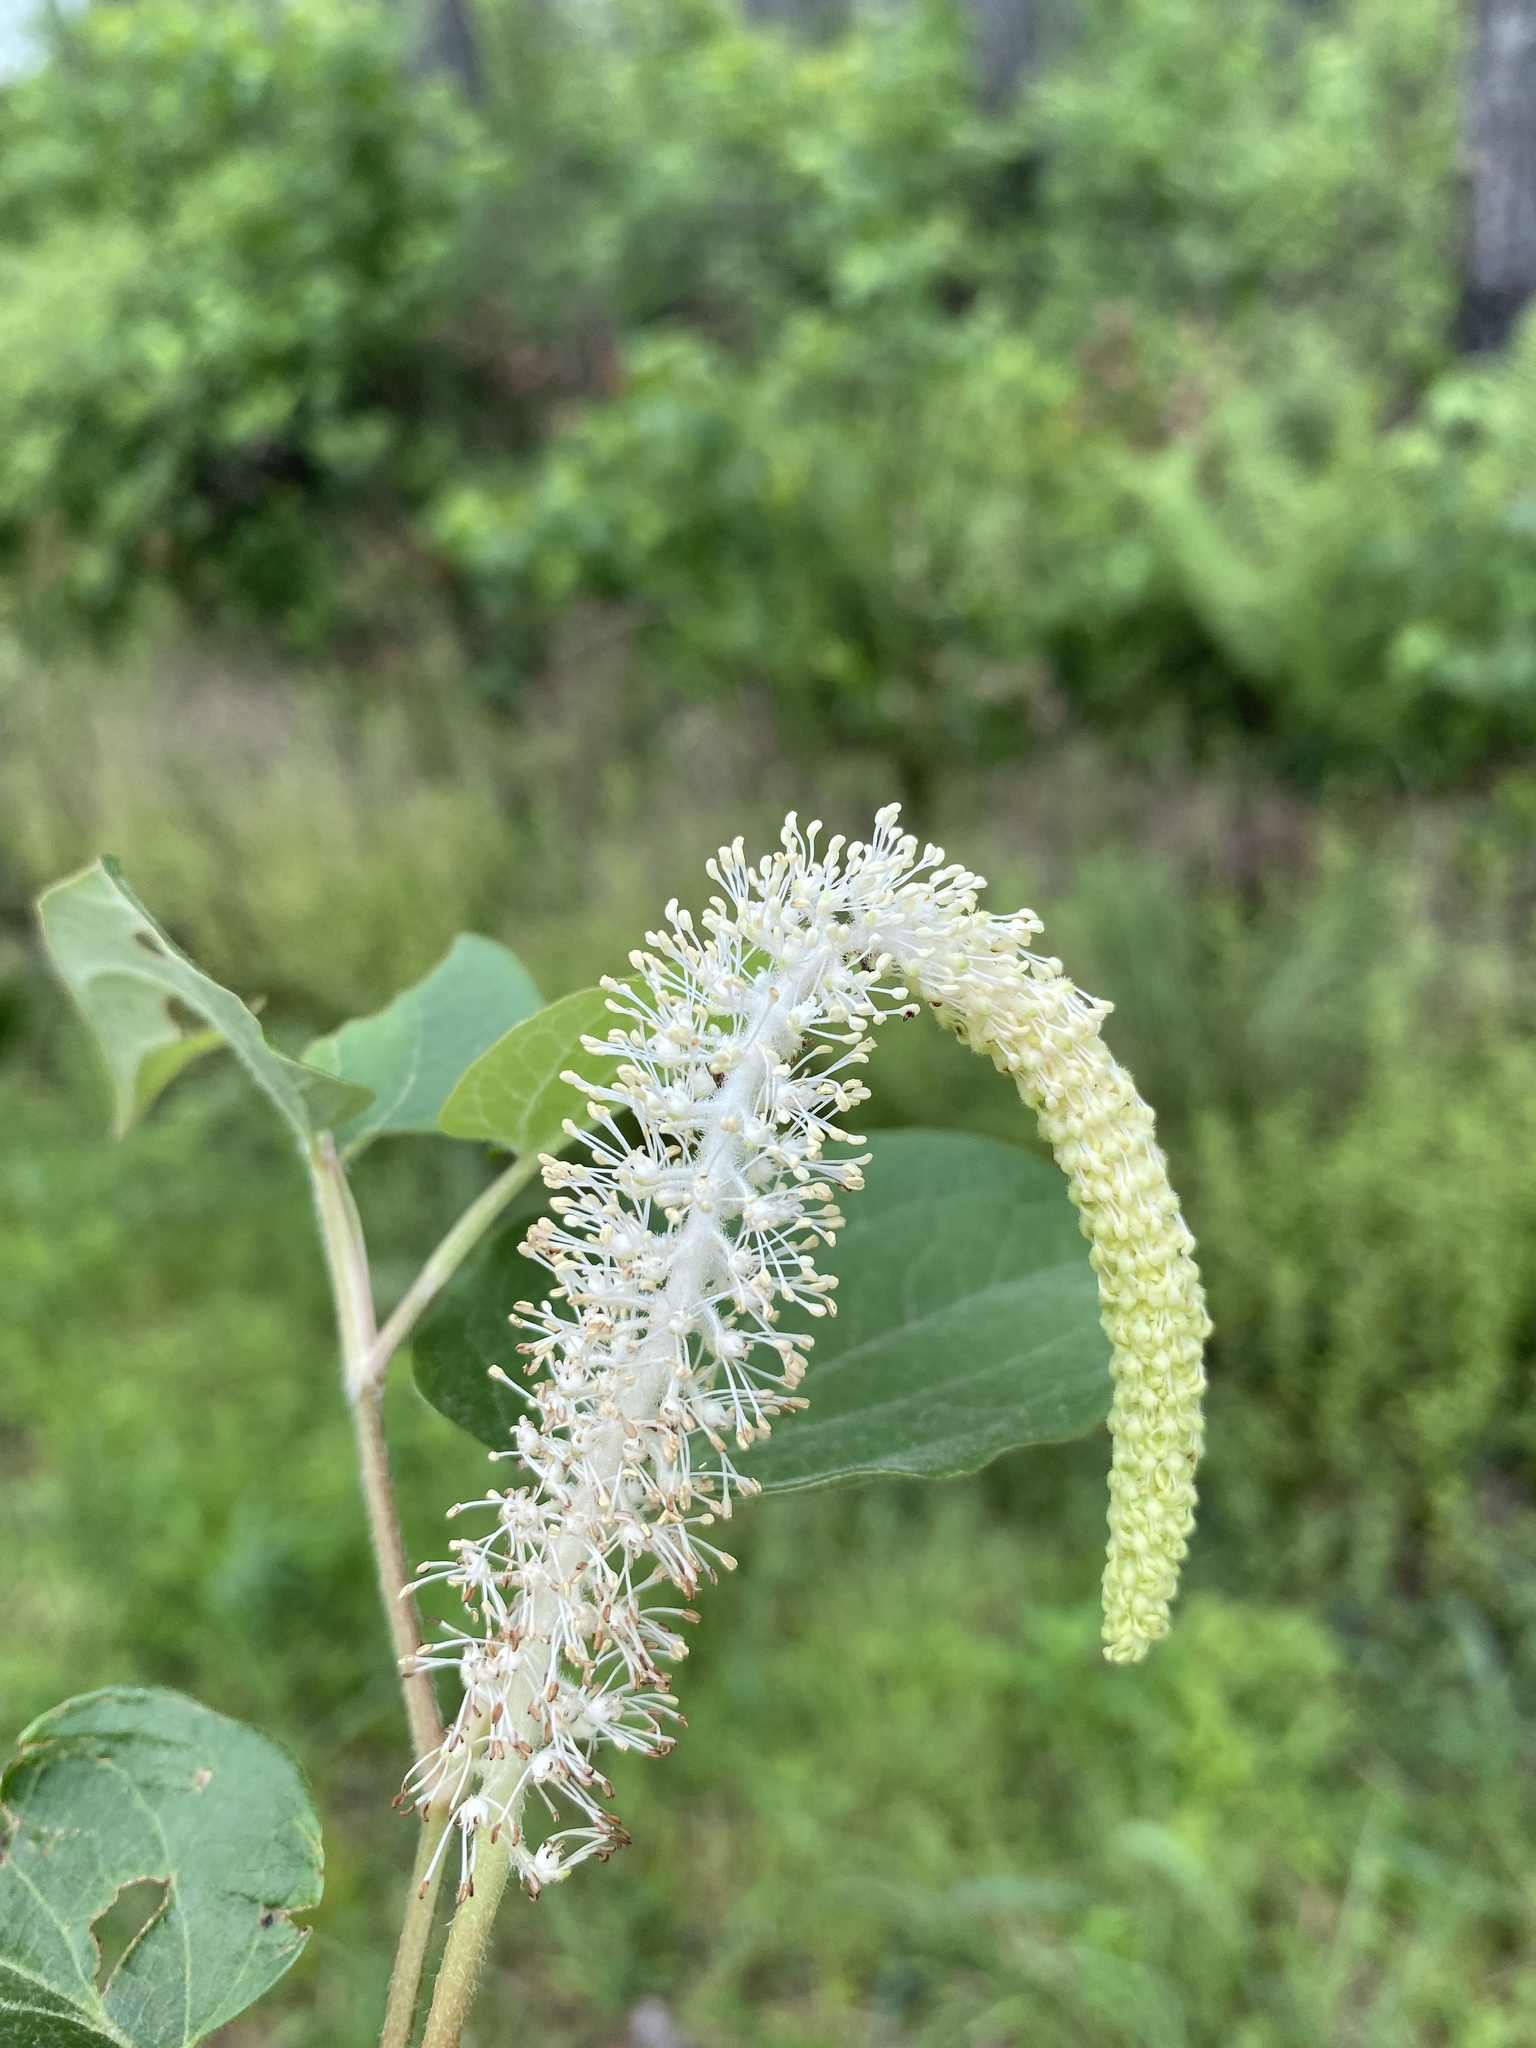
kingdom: Plantae
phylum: Tracheophyta
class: Magnoliopsida
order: Piperales
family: Saururaceae
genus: Saururus
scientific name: Saururus cernuus
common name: Lizard's-tail
